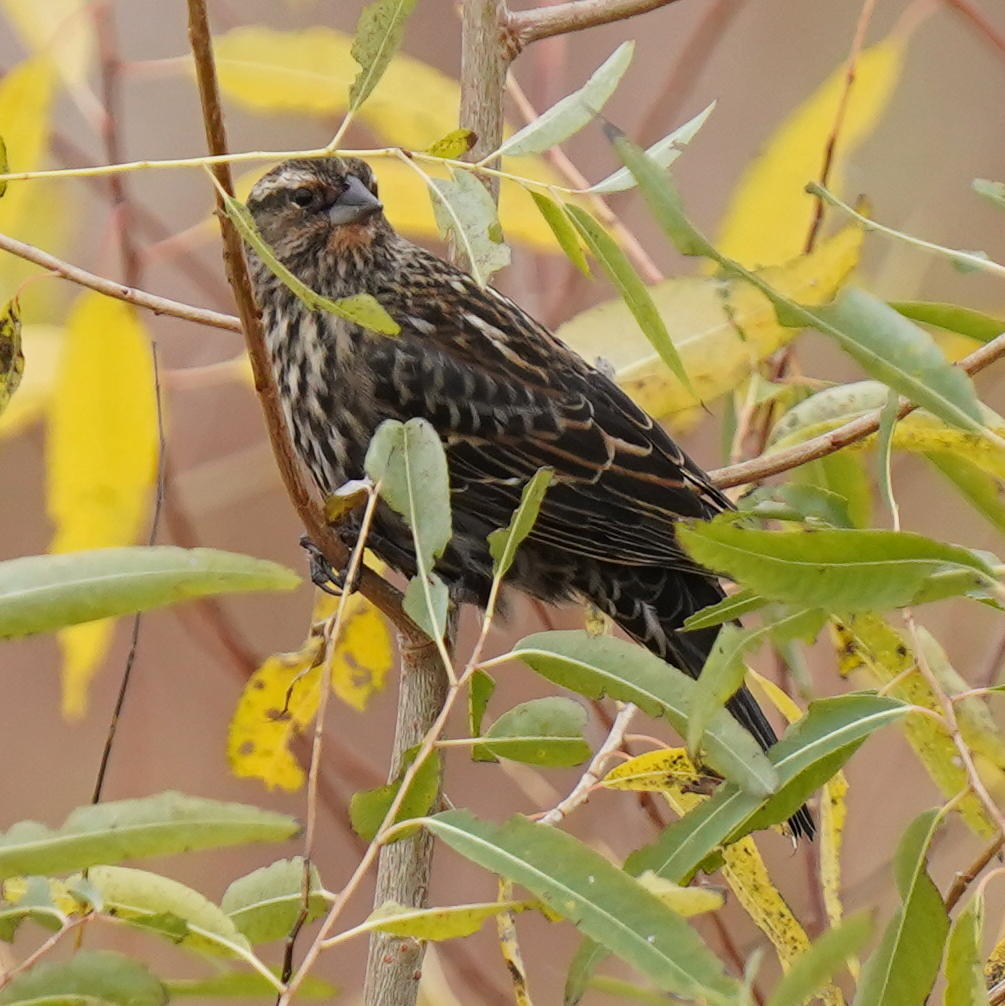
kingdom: Animalia
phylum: Chordata
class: Aves
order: Passeriformes
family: Icteridae
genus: Agelaius
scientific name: Agelaius phoeniceus
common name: Red-winged blackbird
